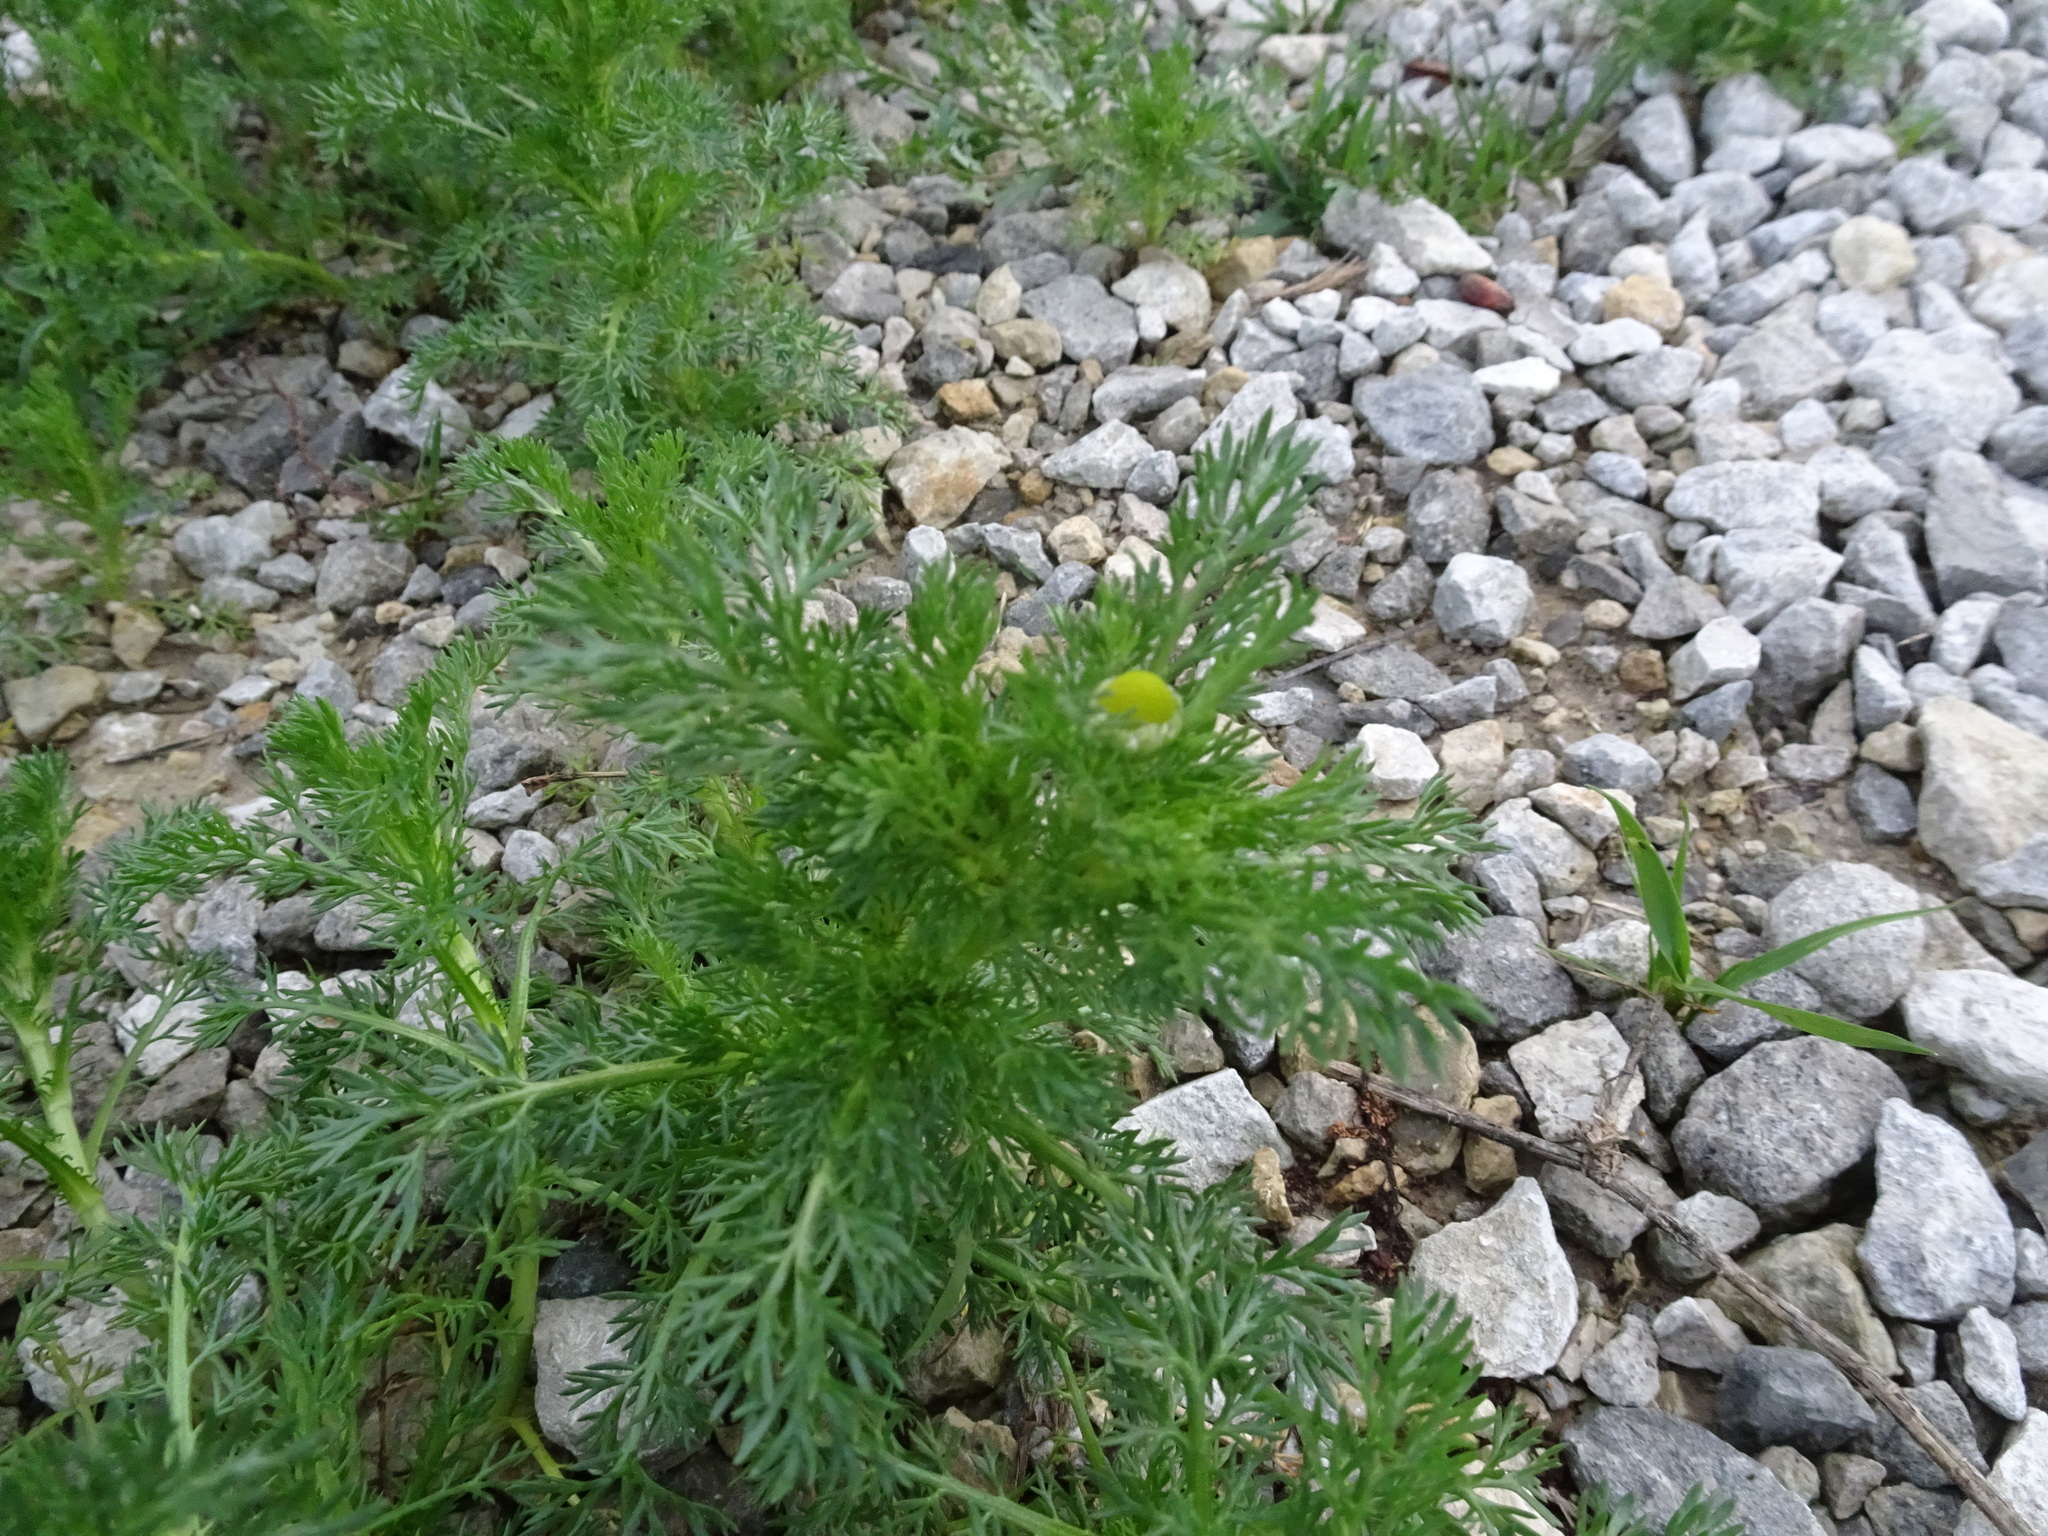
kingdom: Plantae
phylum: Tracheophyta
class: Magnoliopsida
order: Asterales
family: Asteraceae
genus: Matricaria
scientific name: Matricaria discoidea
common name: Disc mayweed
